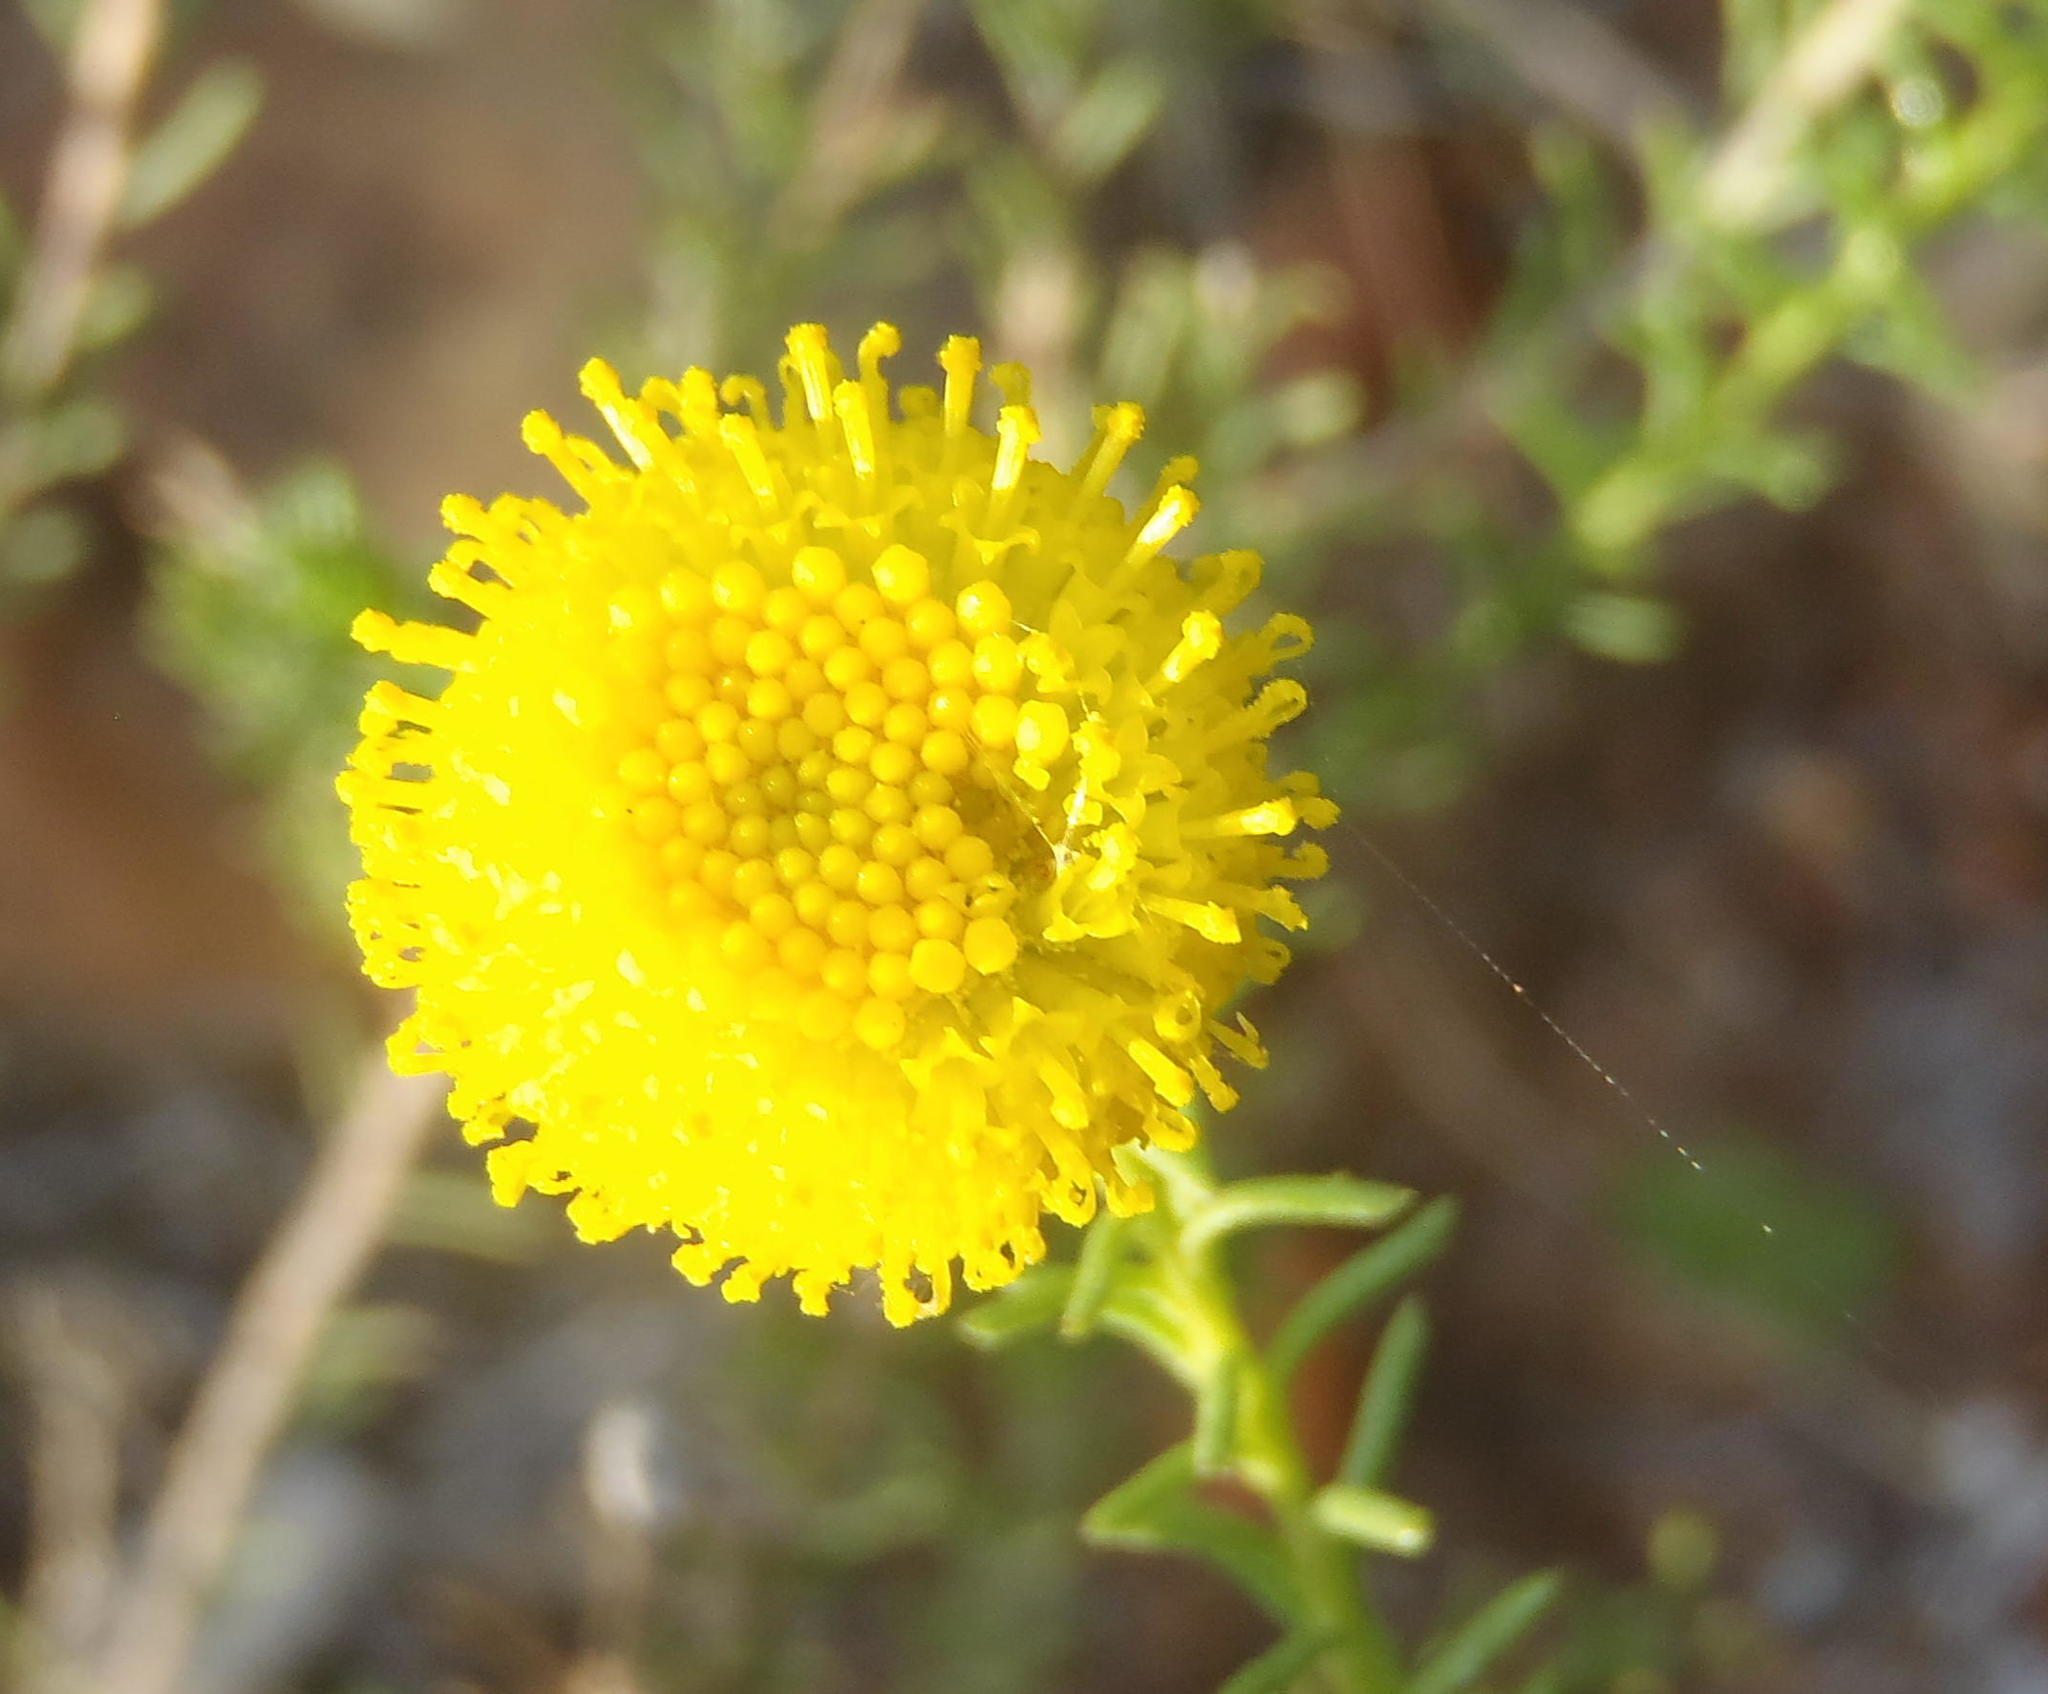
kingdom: Plantae
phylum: Tracheophyta
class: Magnoliopsida
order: Asterales
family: Asteraceae
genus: Chrysocoma
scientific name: Chrysocoma ciliata
